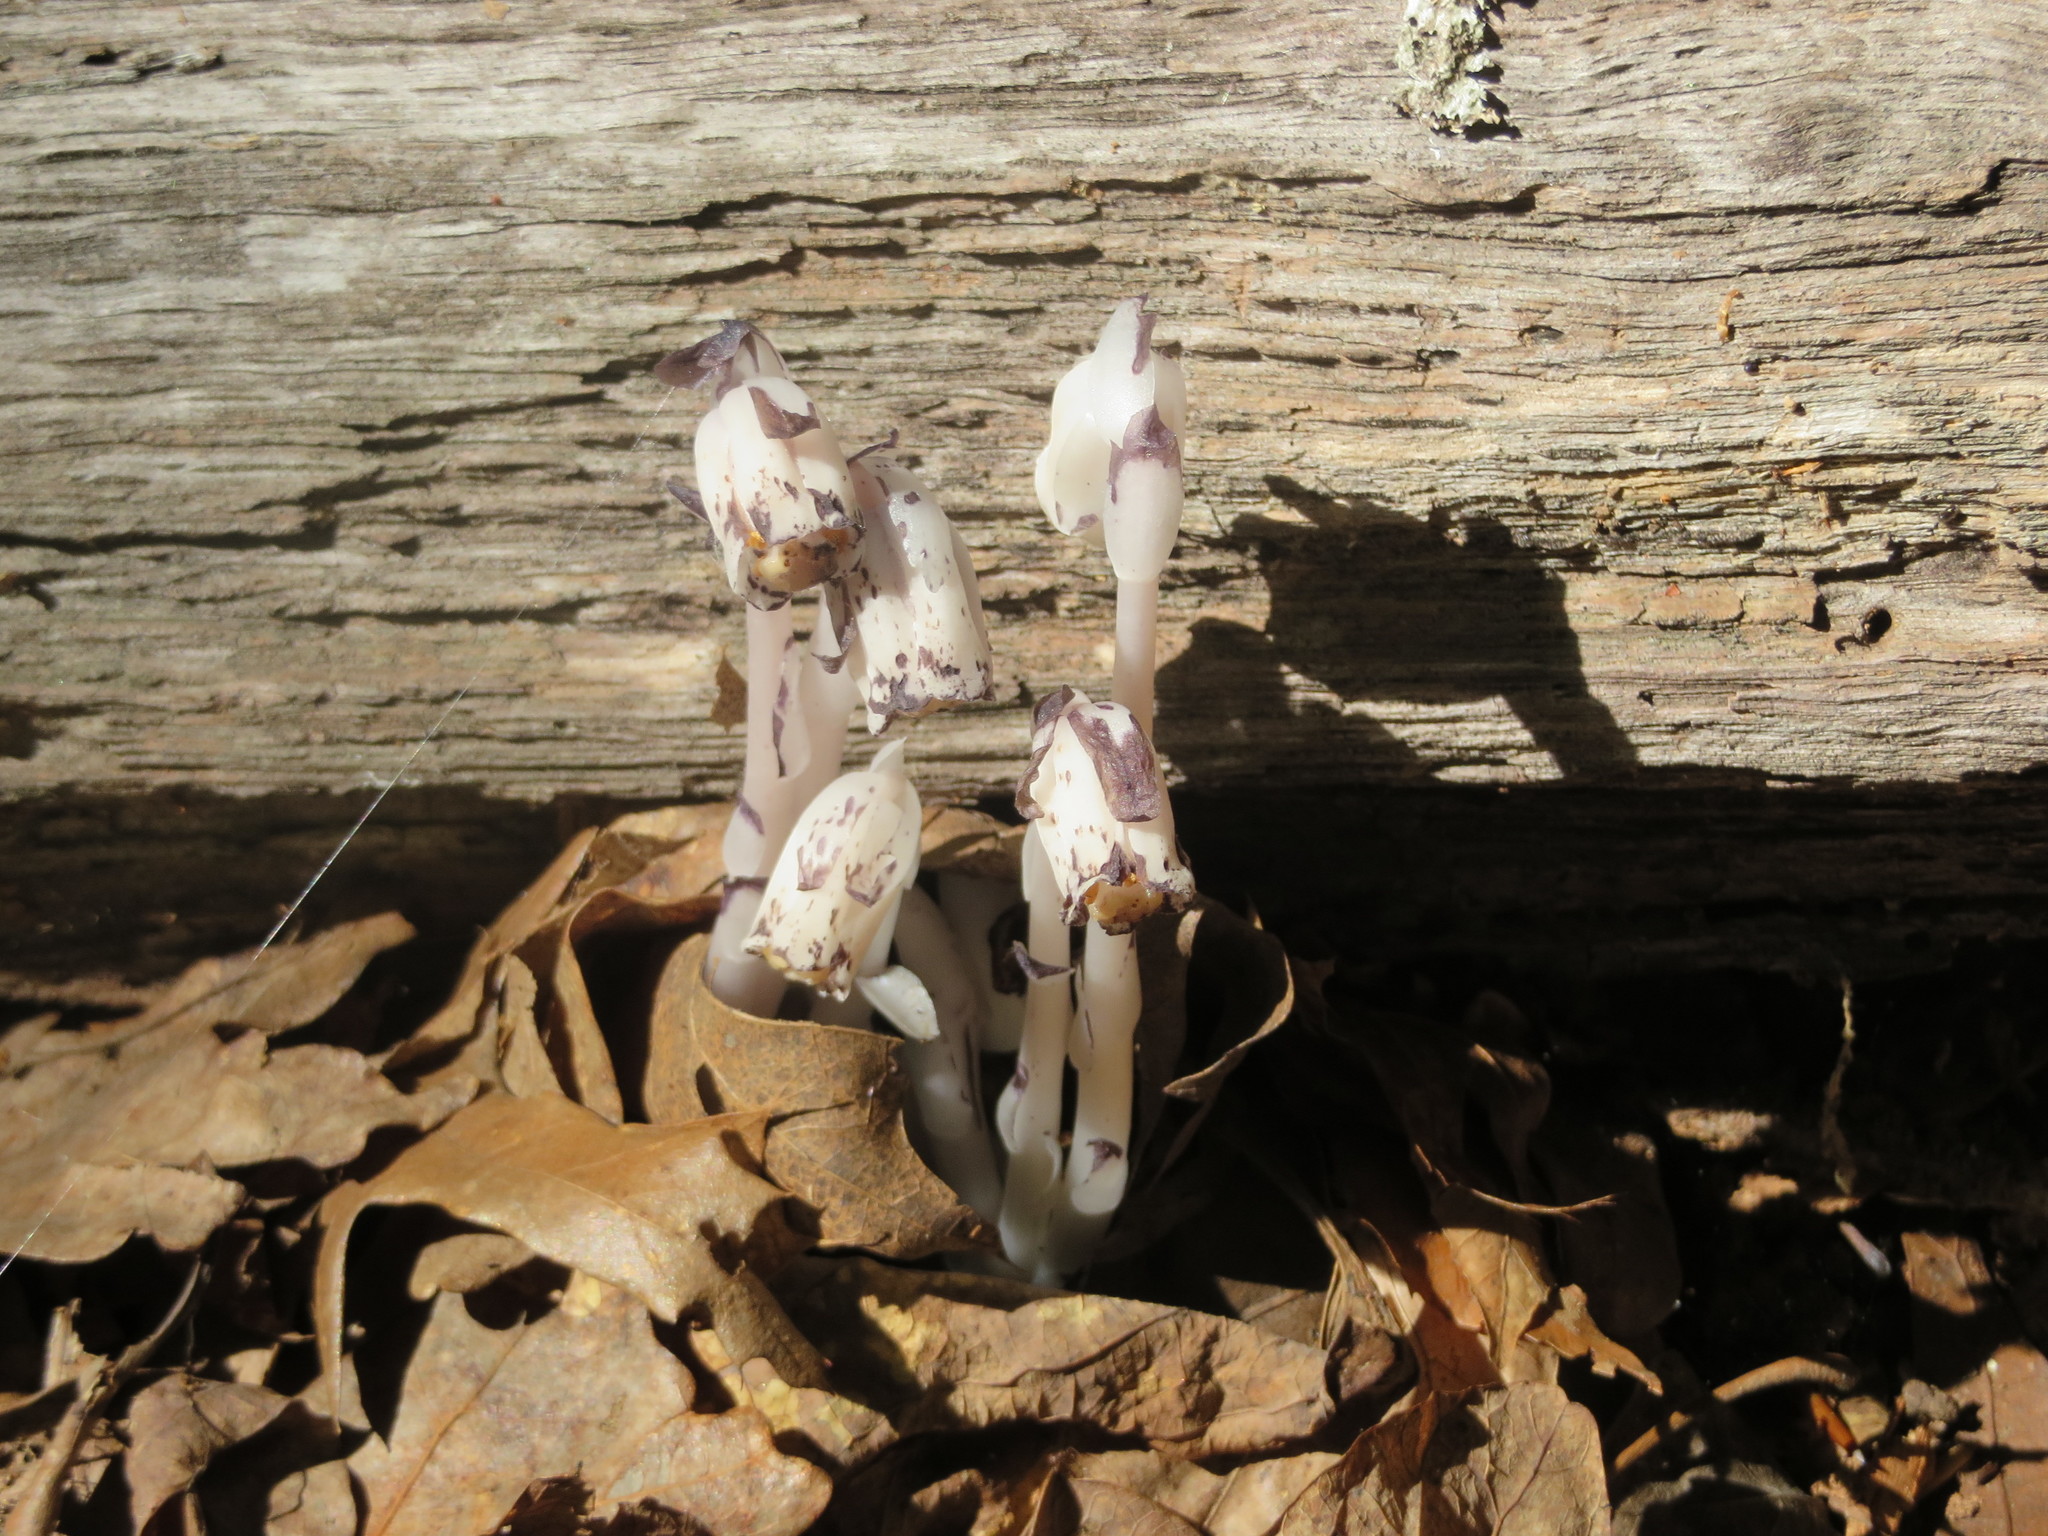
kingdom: Plantae
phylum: Tracheophyta
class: Magnoliopsida
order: Ericales
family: Ericaceae
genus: Monotropa
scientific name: Monotropa uniflora
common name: Convulsion root
